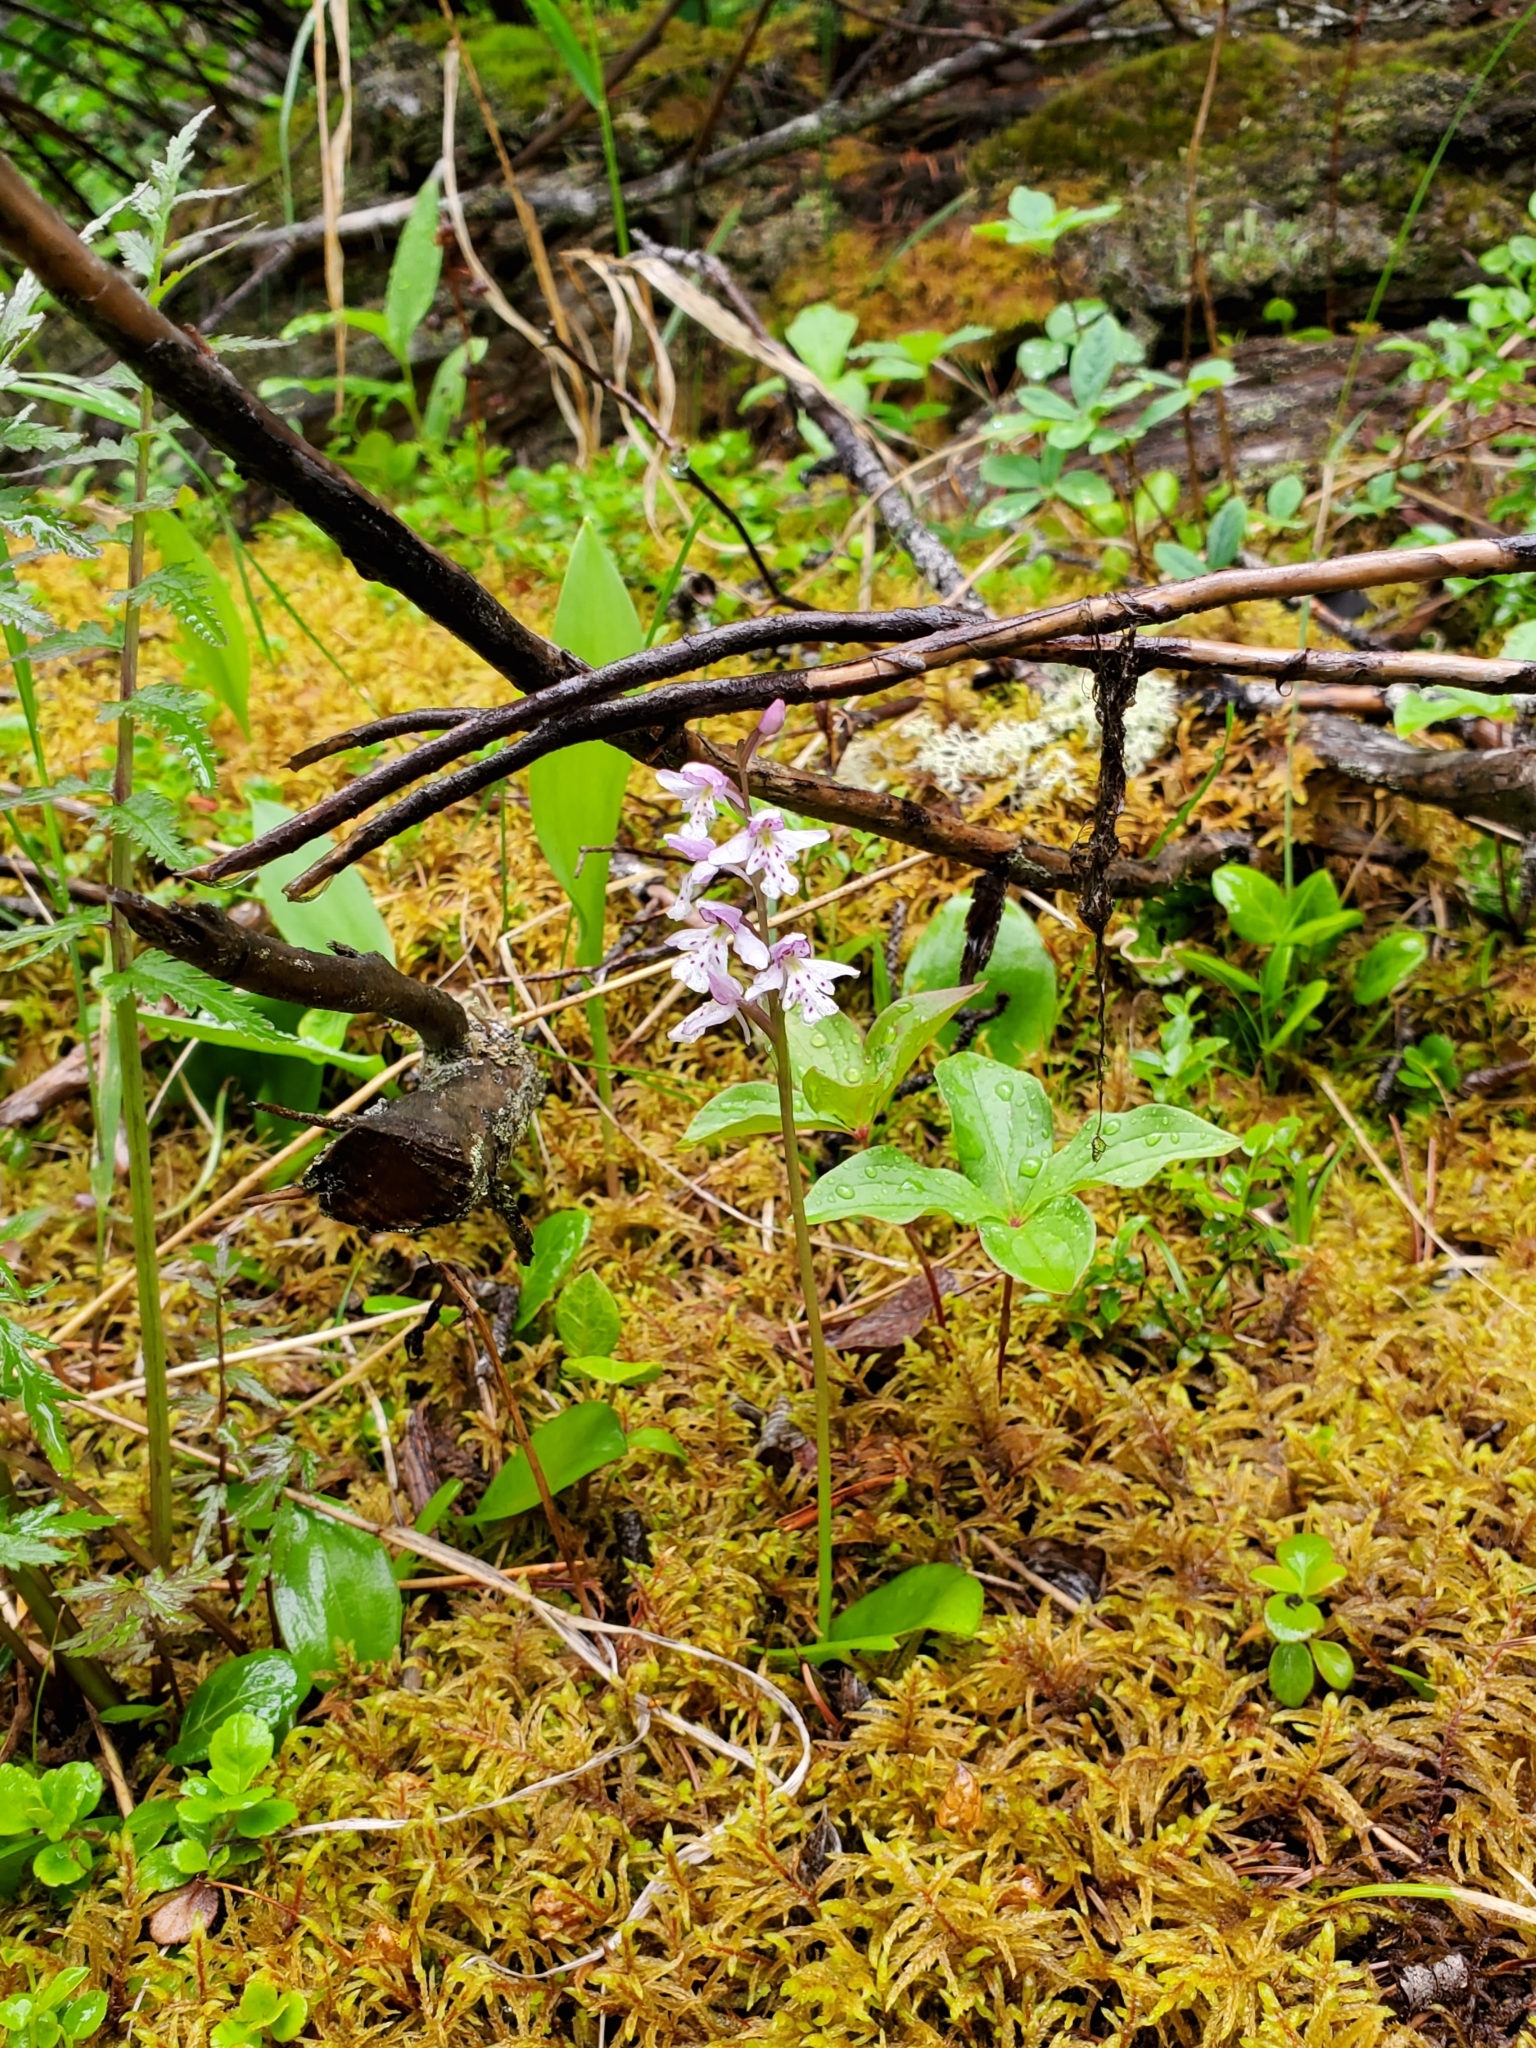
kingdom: Plantae
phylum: Tracheophyta
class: Liliopsida
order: Asparagales
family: Orchidaceae
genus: Galearis
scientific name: Galearis rotundifolia
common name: One-leaved orchis
